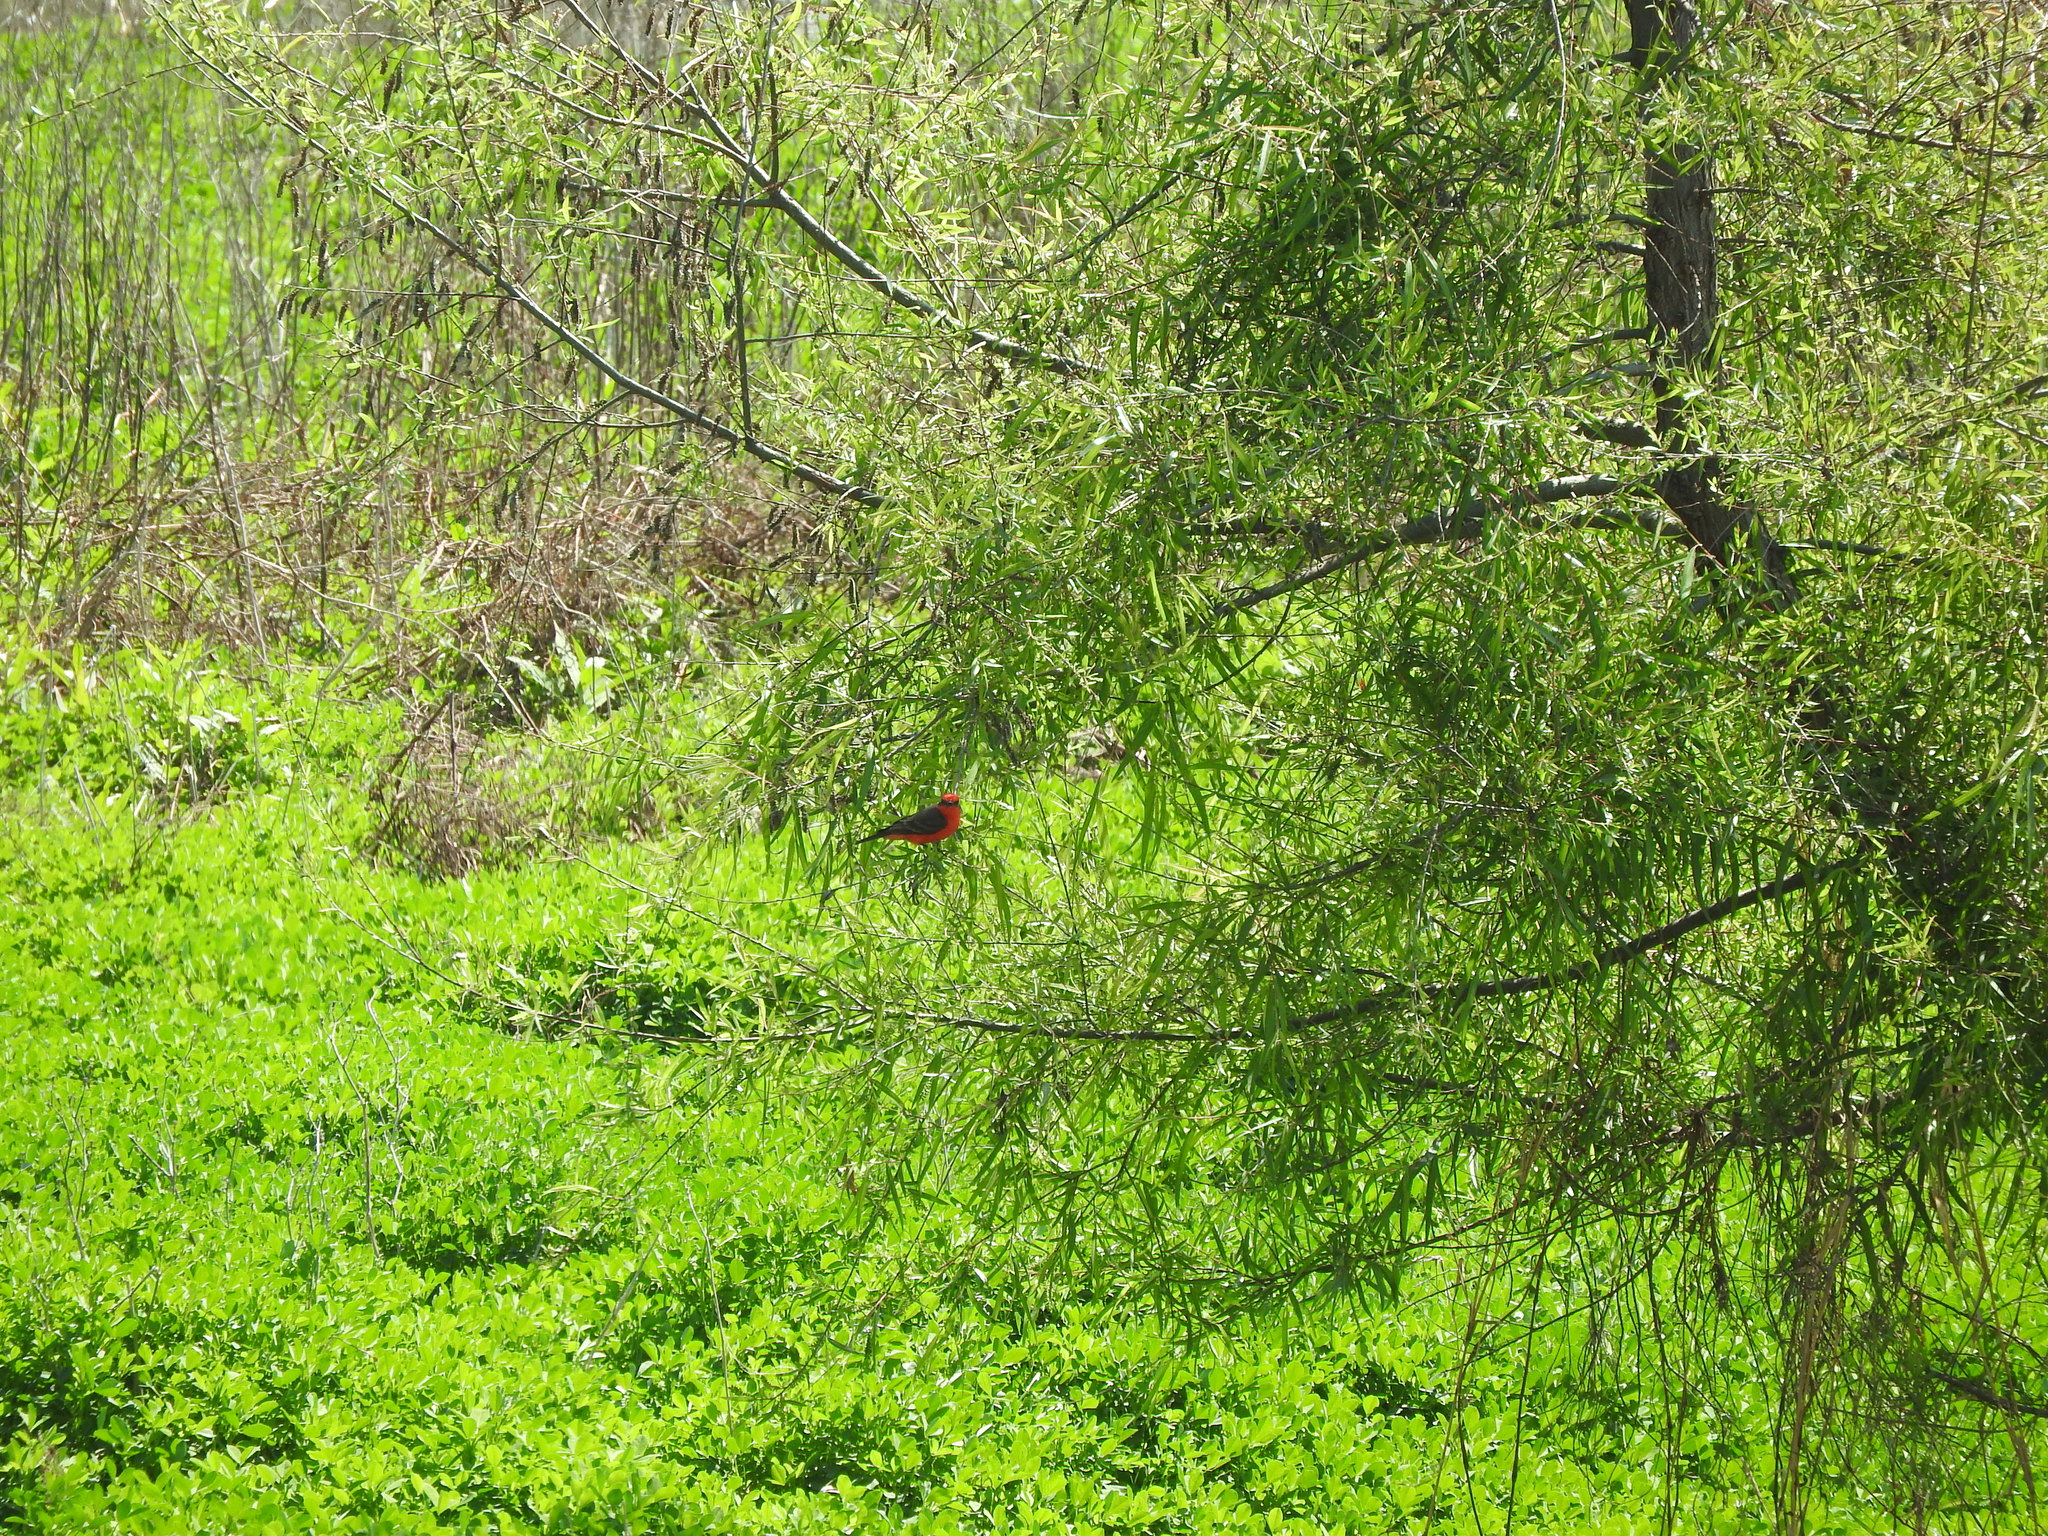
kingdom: Animalia
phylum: Chordata
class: Aves
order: Passeriformes
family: Tyrannidae
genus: Pyrocephalus
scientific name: Pyrocephalus rubinus
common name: Vermilion flycatcher
